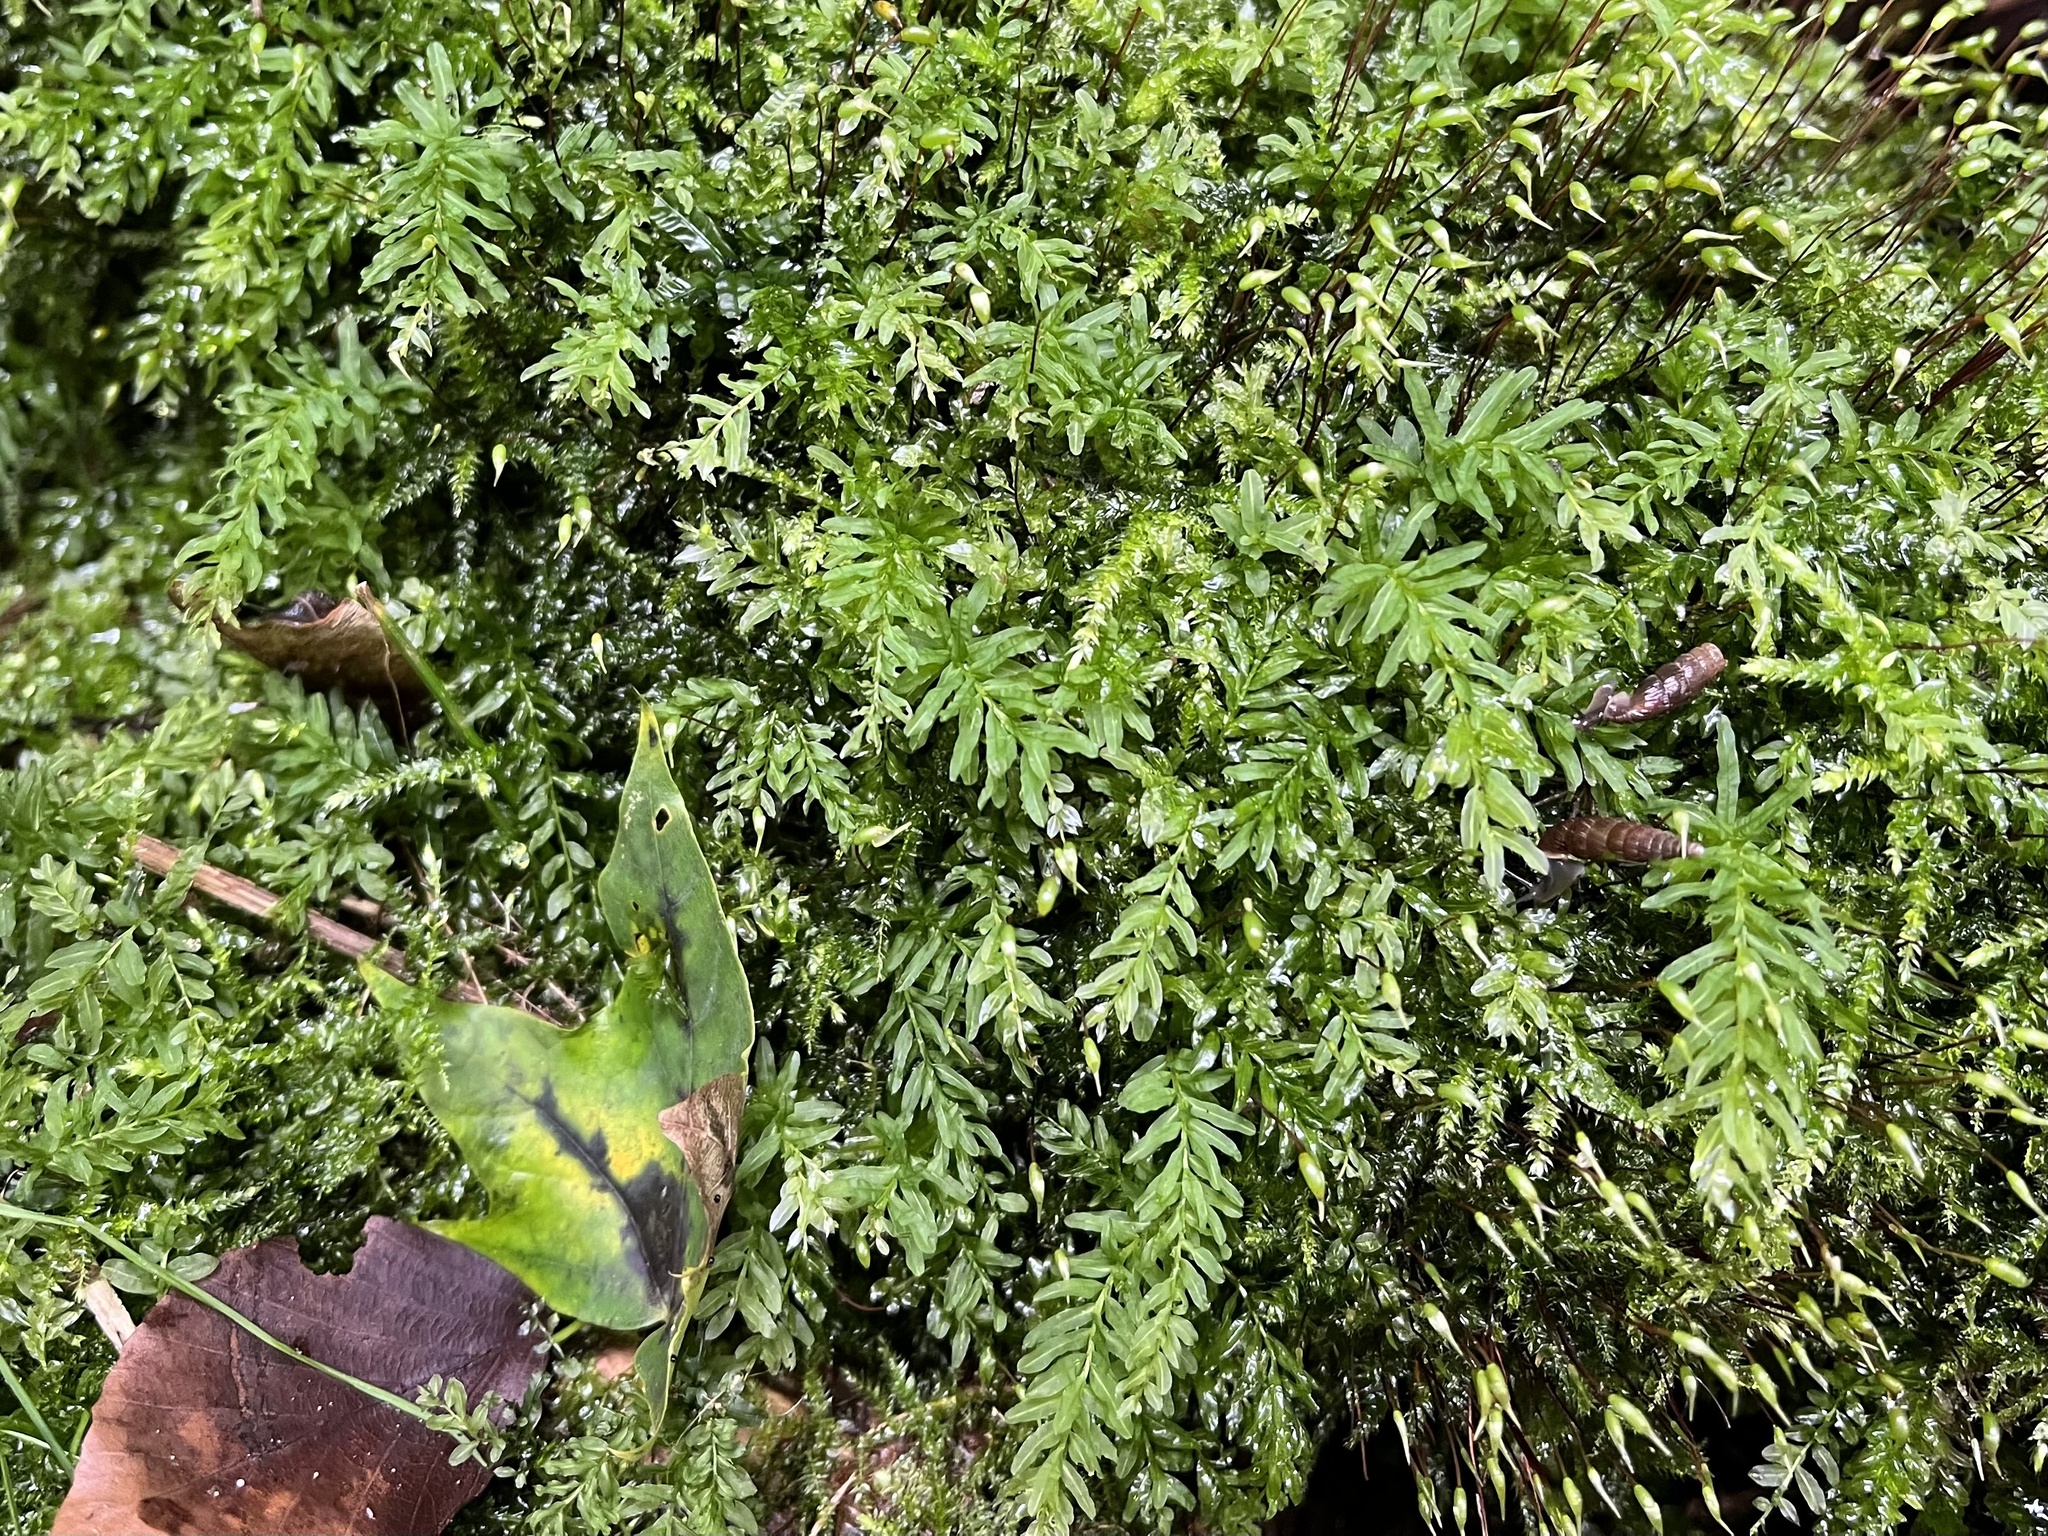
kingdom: Plantae
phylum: Bryophyta
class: Bryopsida
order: Bryales
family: Mniaceae
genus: Plagiomnium
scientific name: Plagiomnium undulatum
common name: Hart's-tongue thyme-moss
